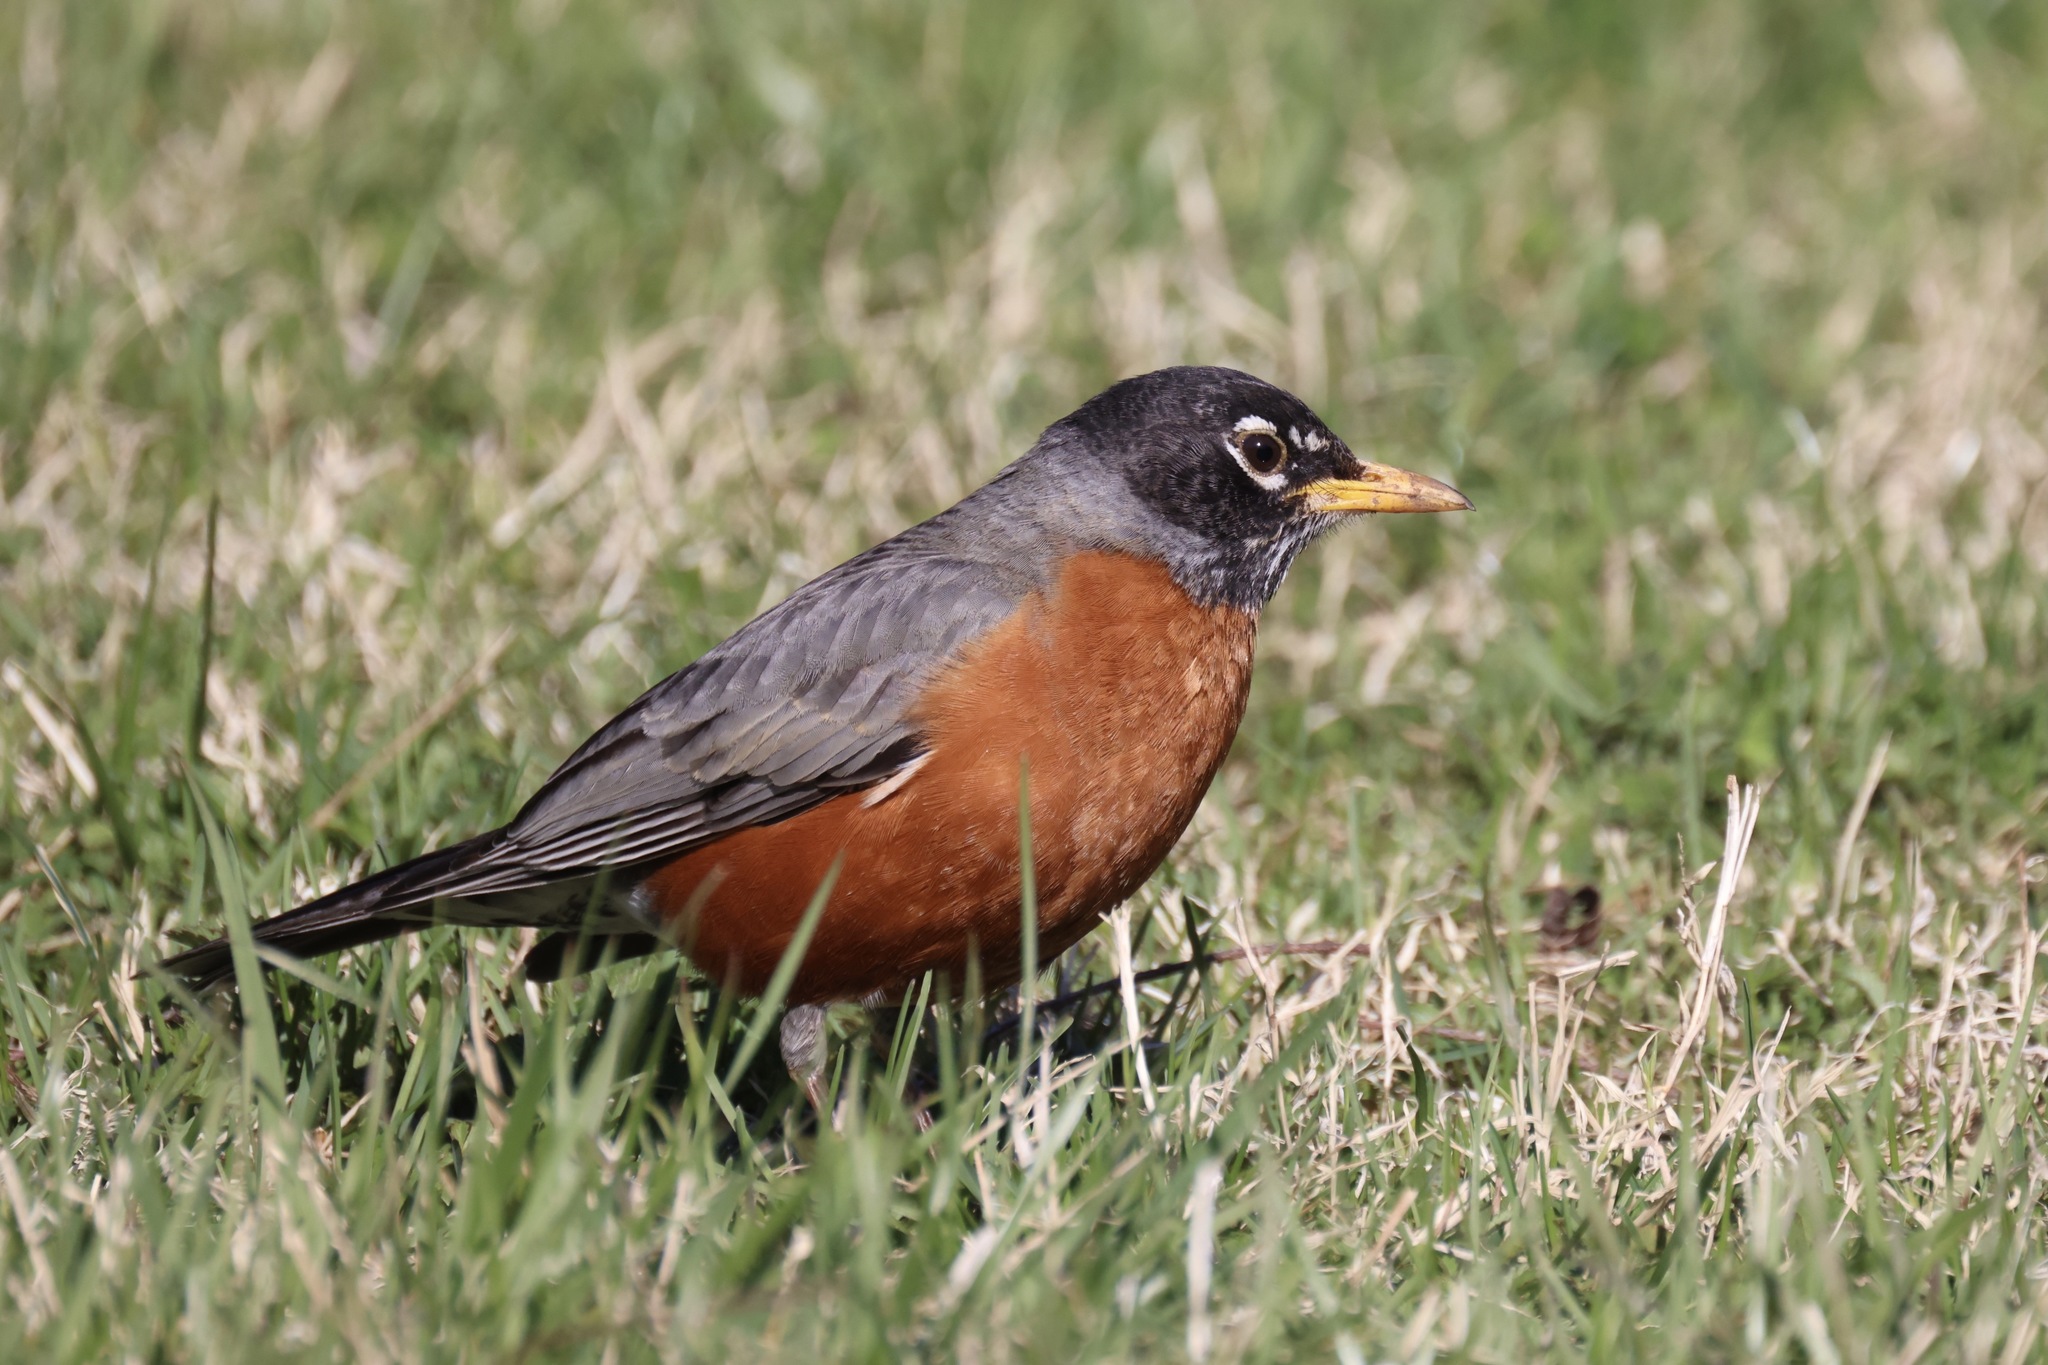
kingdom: Animalia
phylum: Chordata
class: Aves
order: Passeriformes
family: Turdidae
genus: Turdus
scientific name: Turdus migratorius
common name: American robin
